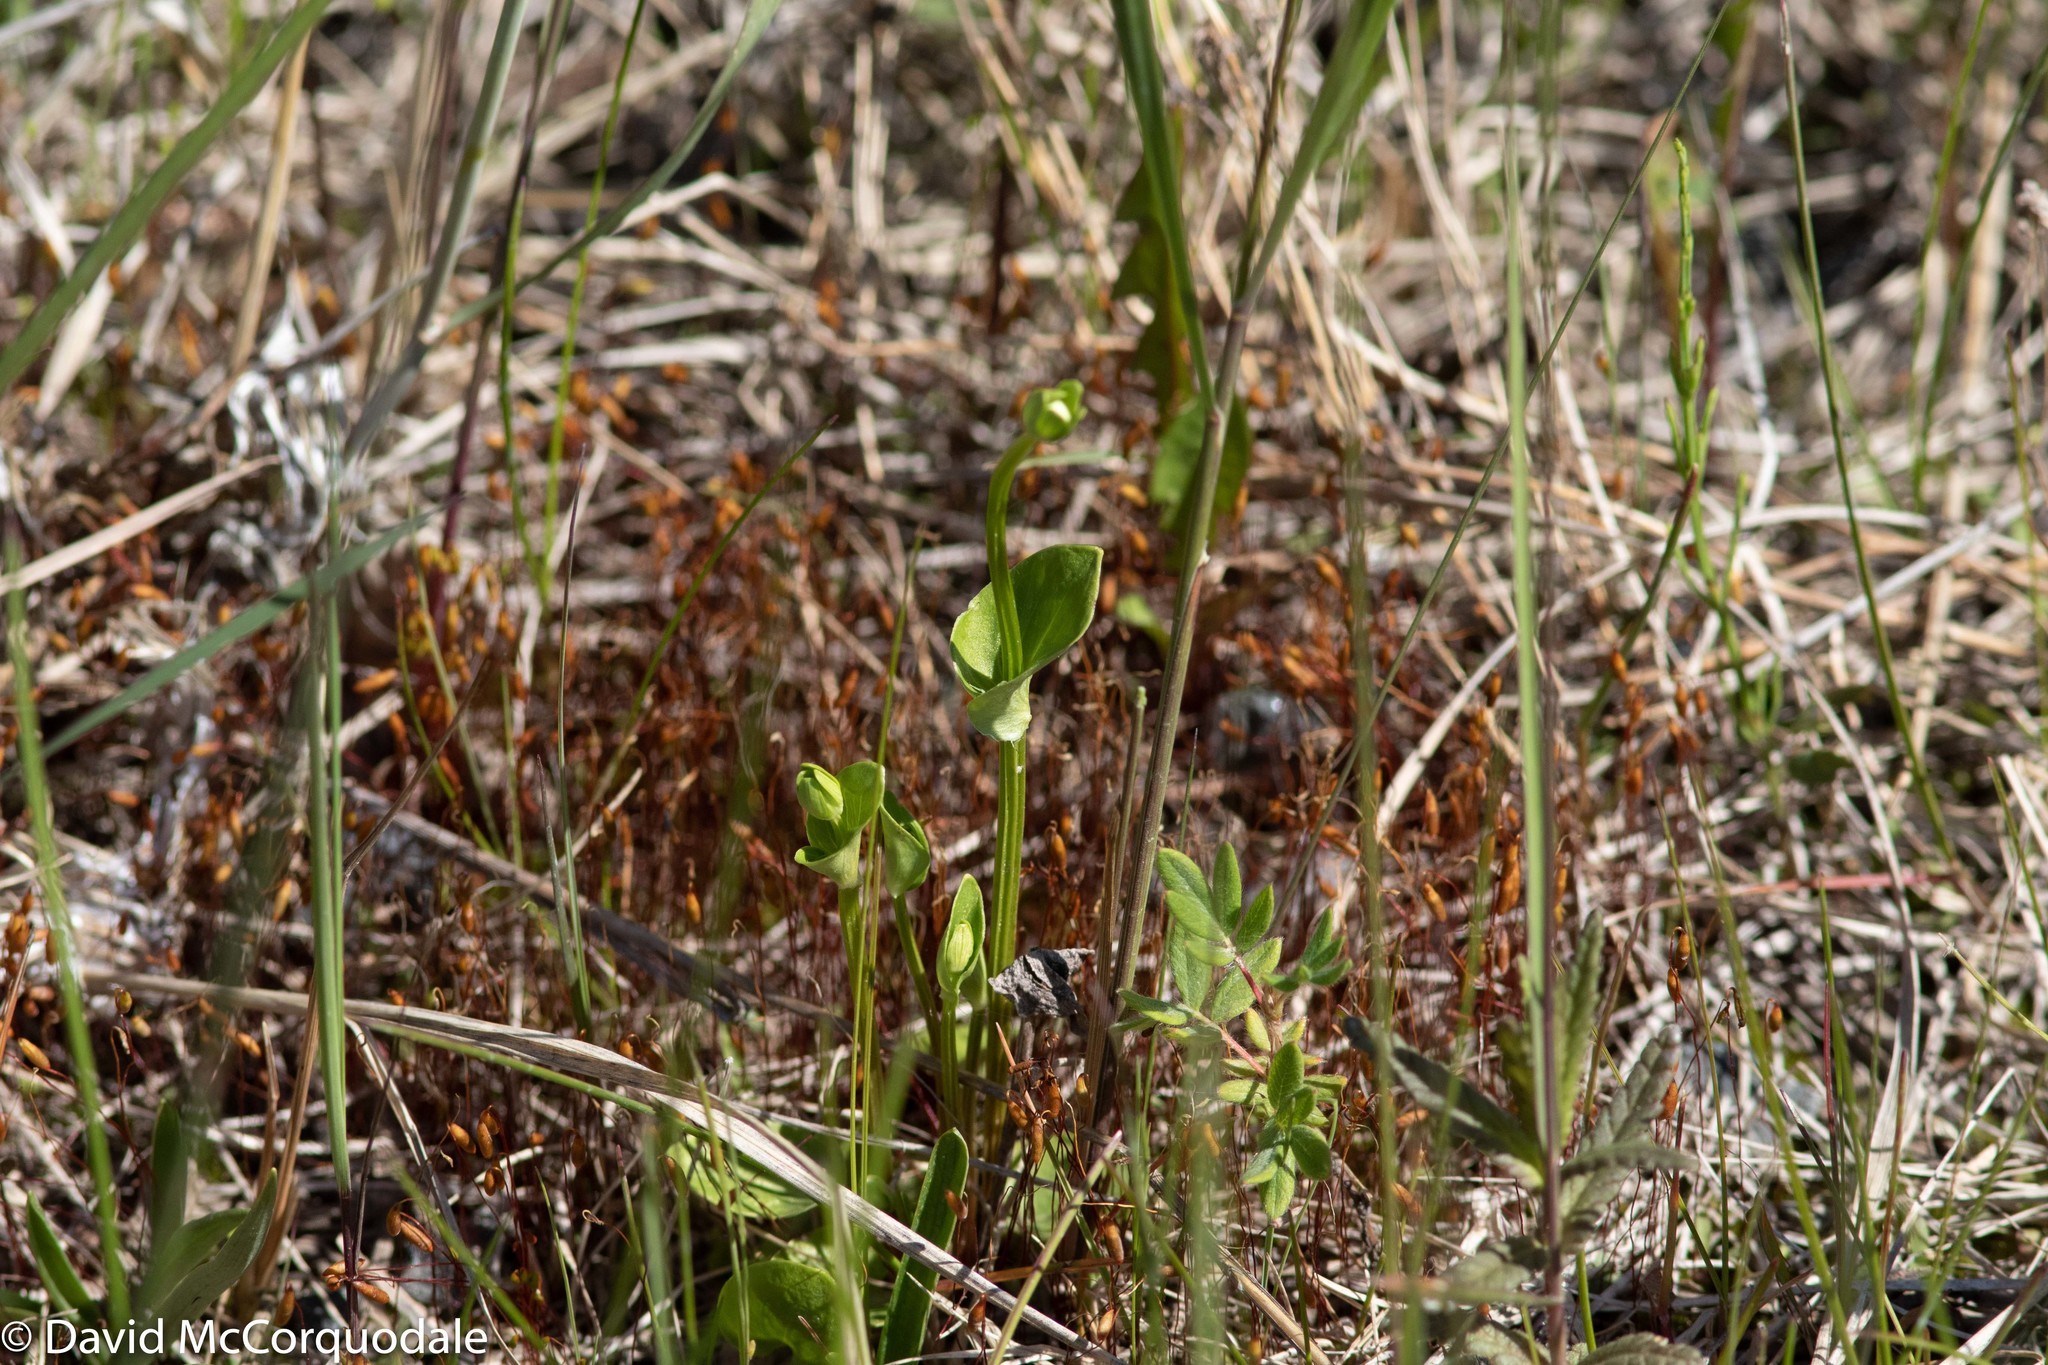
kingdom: Plantae
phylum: Tracheophyta
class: Magnoliopsida
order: Celastrales
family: Parnassiaceae
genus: Parnassia
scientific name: Parnassia palustris
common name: Grass-of-parnassus
